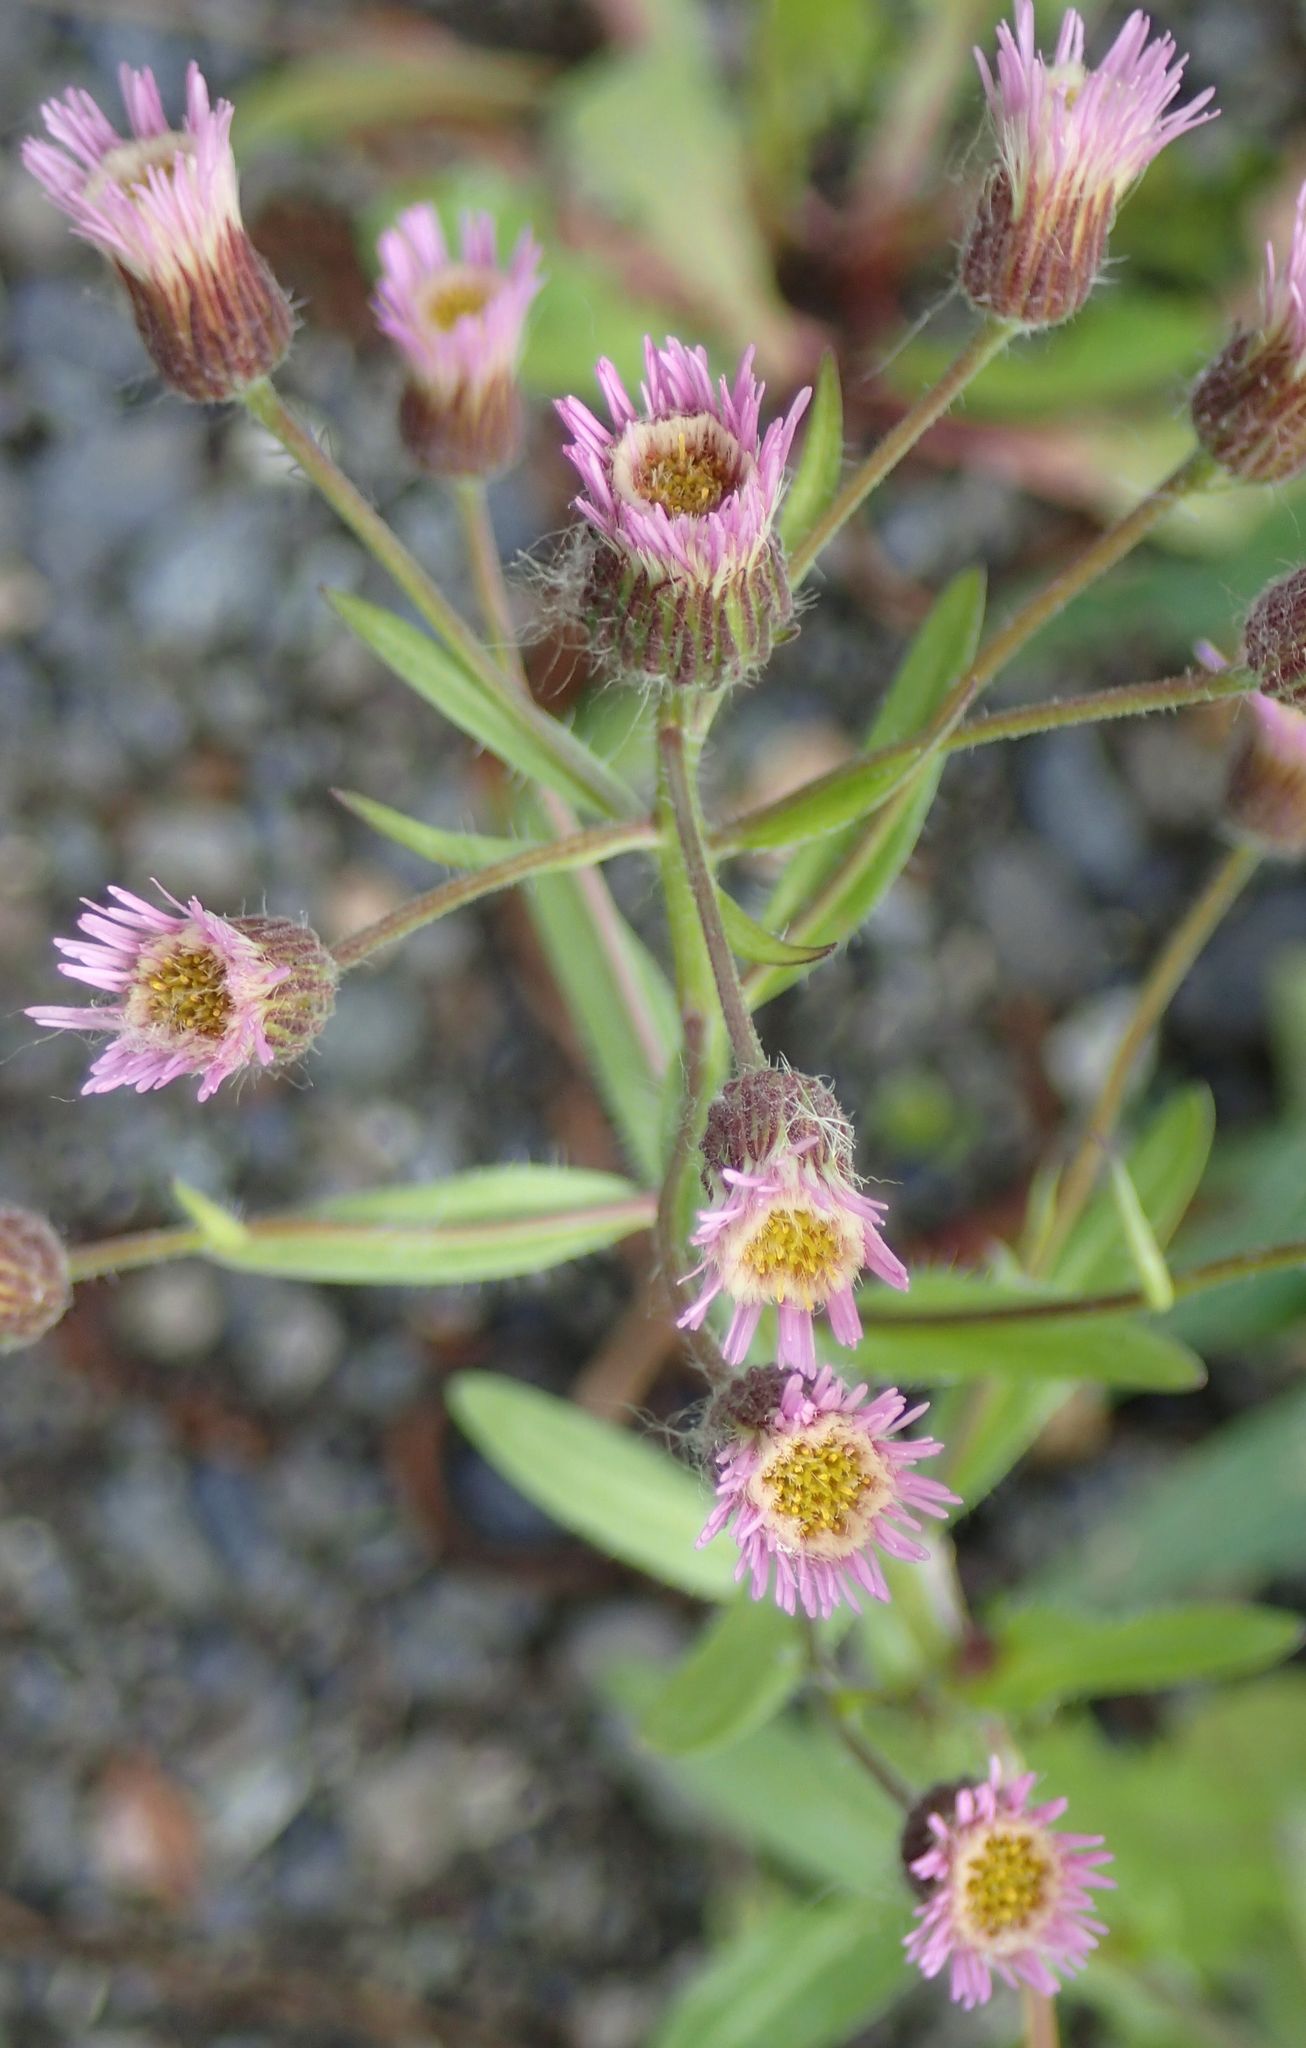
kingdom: Plantae
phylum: Tracheophyta
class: Magnoliopsida
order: Asterales
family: Asteraceae
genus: Erigeron
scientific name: Erigeron acris
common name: Blue fleabane
